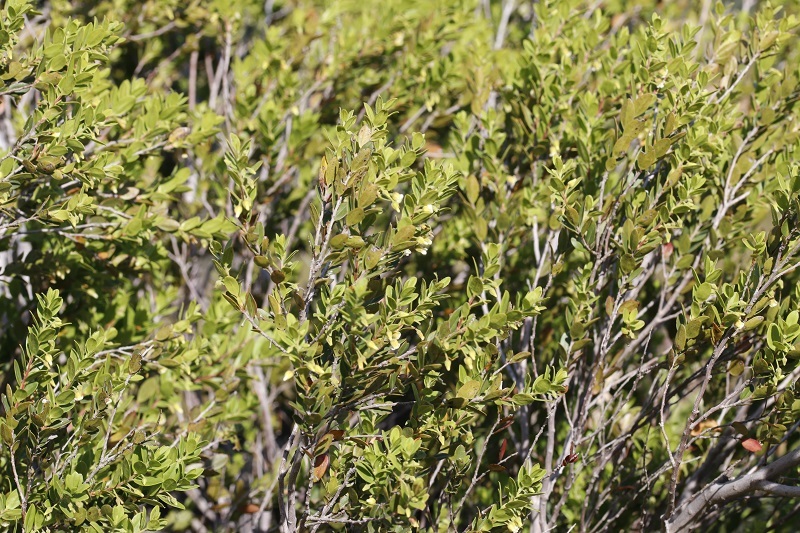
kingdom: Plantae
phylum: Tracheophyta
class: Magnoliopsida
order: Ericales
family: Ebenaceae
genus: Diospyros
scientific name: Diospyros glabra
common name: Fynbos star apple
